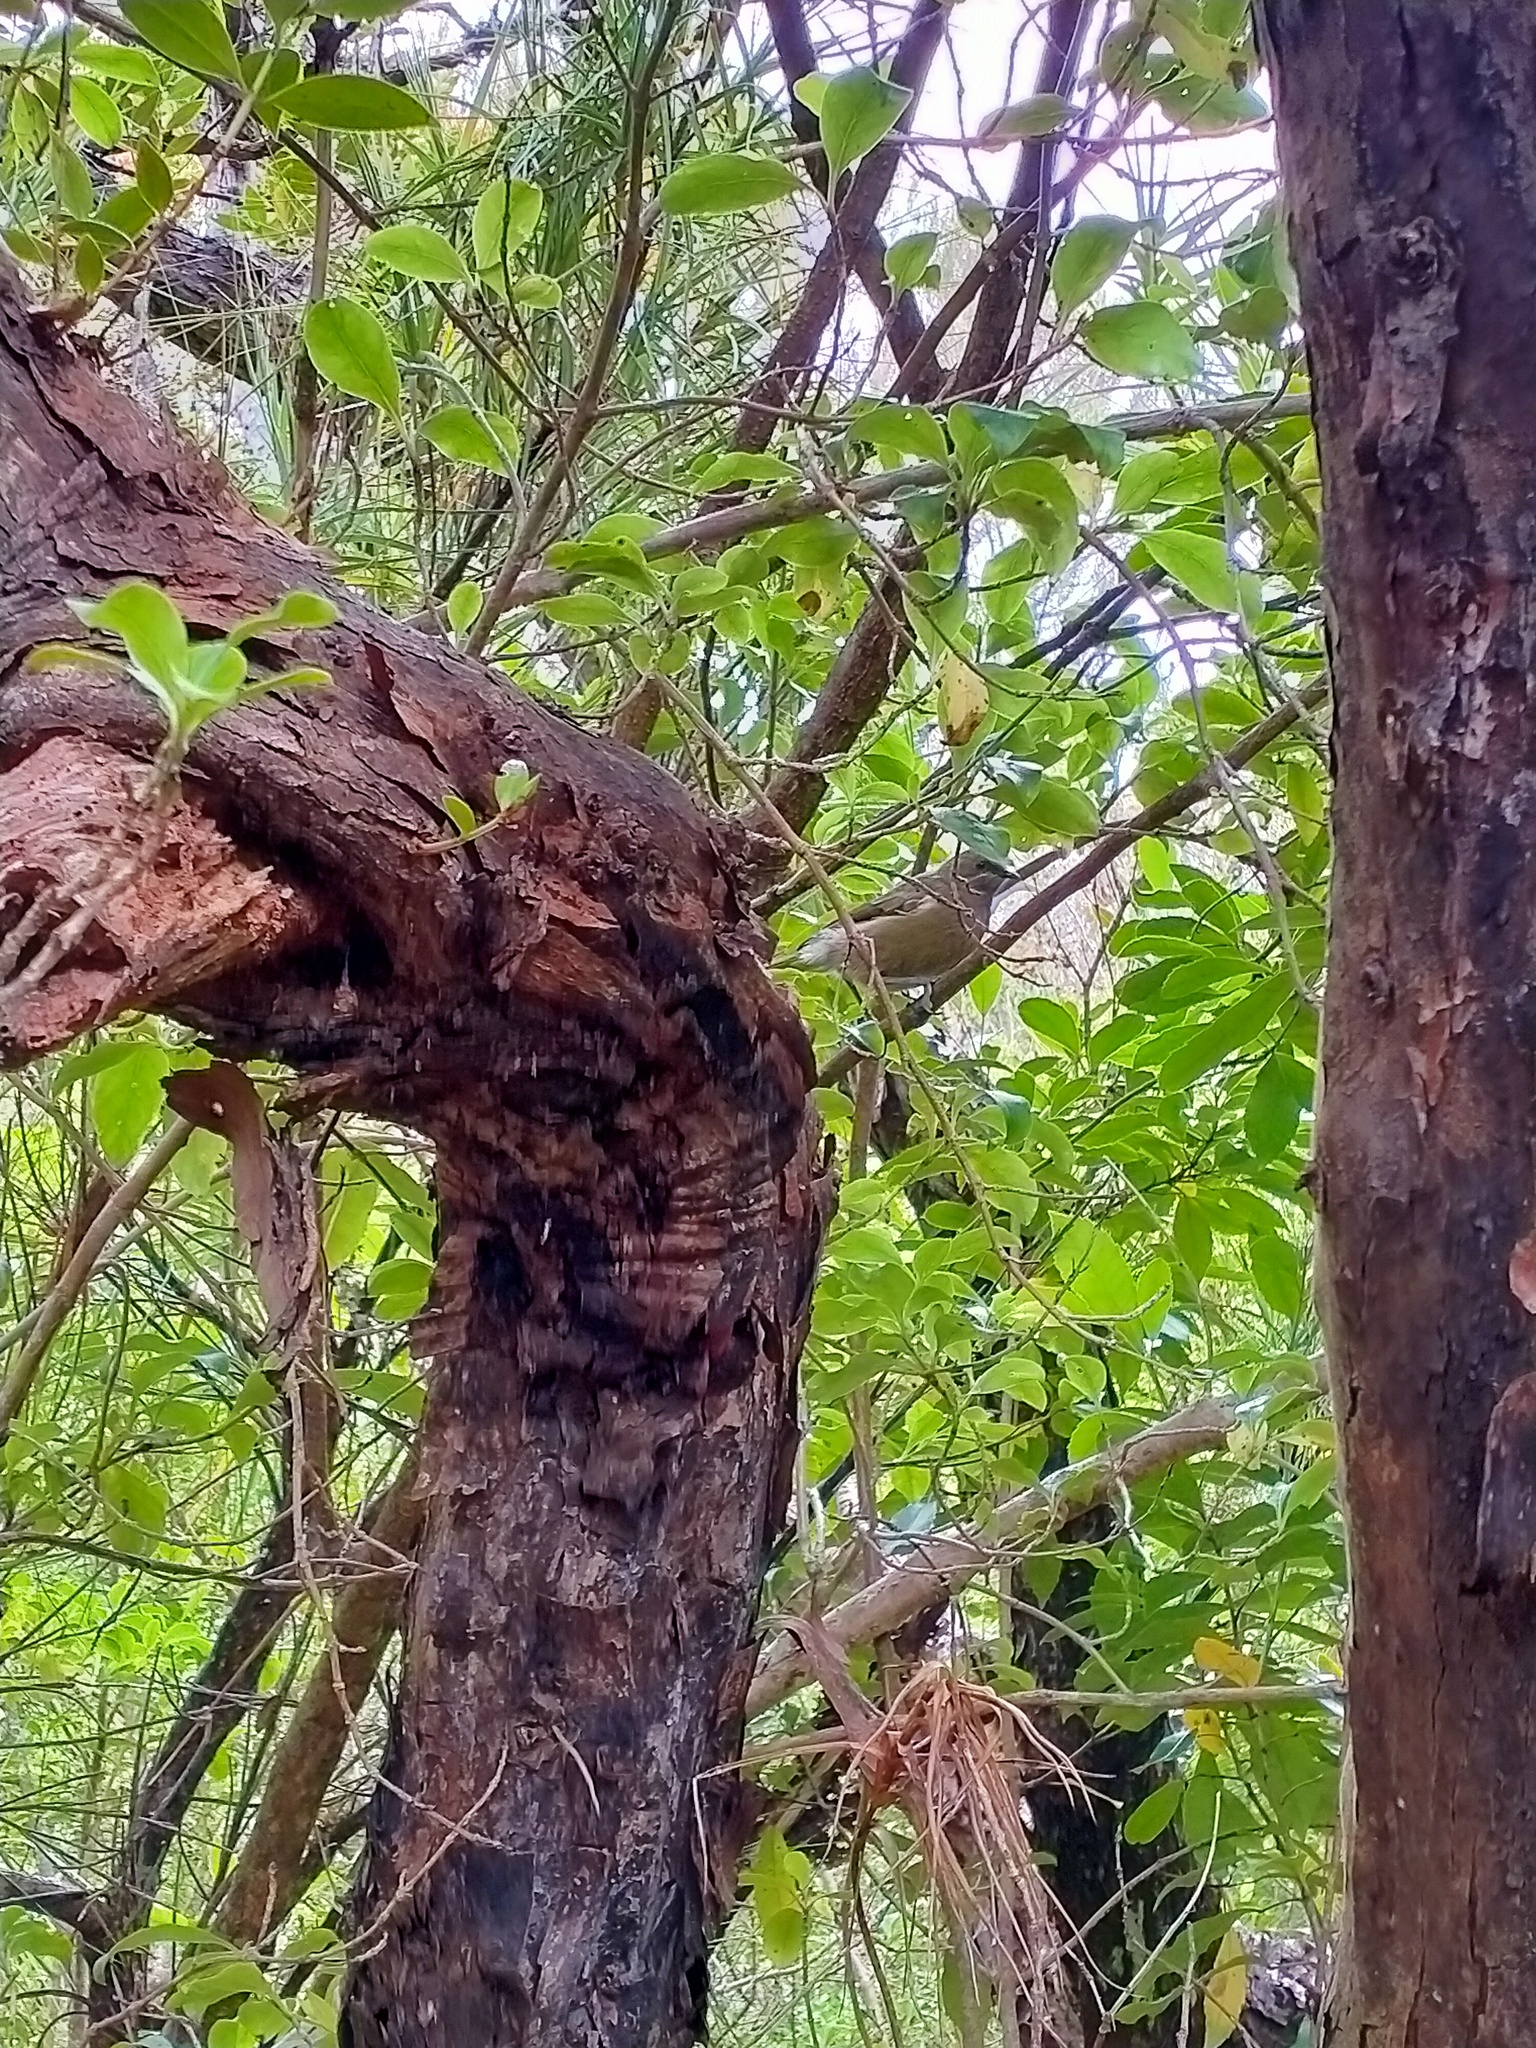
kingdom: Animalia
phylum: Chordata
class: Aves
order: Passeriformes
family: Meliphagidae
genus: Anthornis
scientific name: Anthornis melanura
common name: New zealand bellbird
